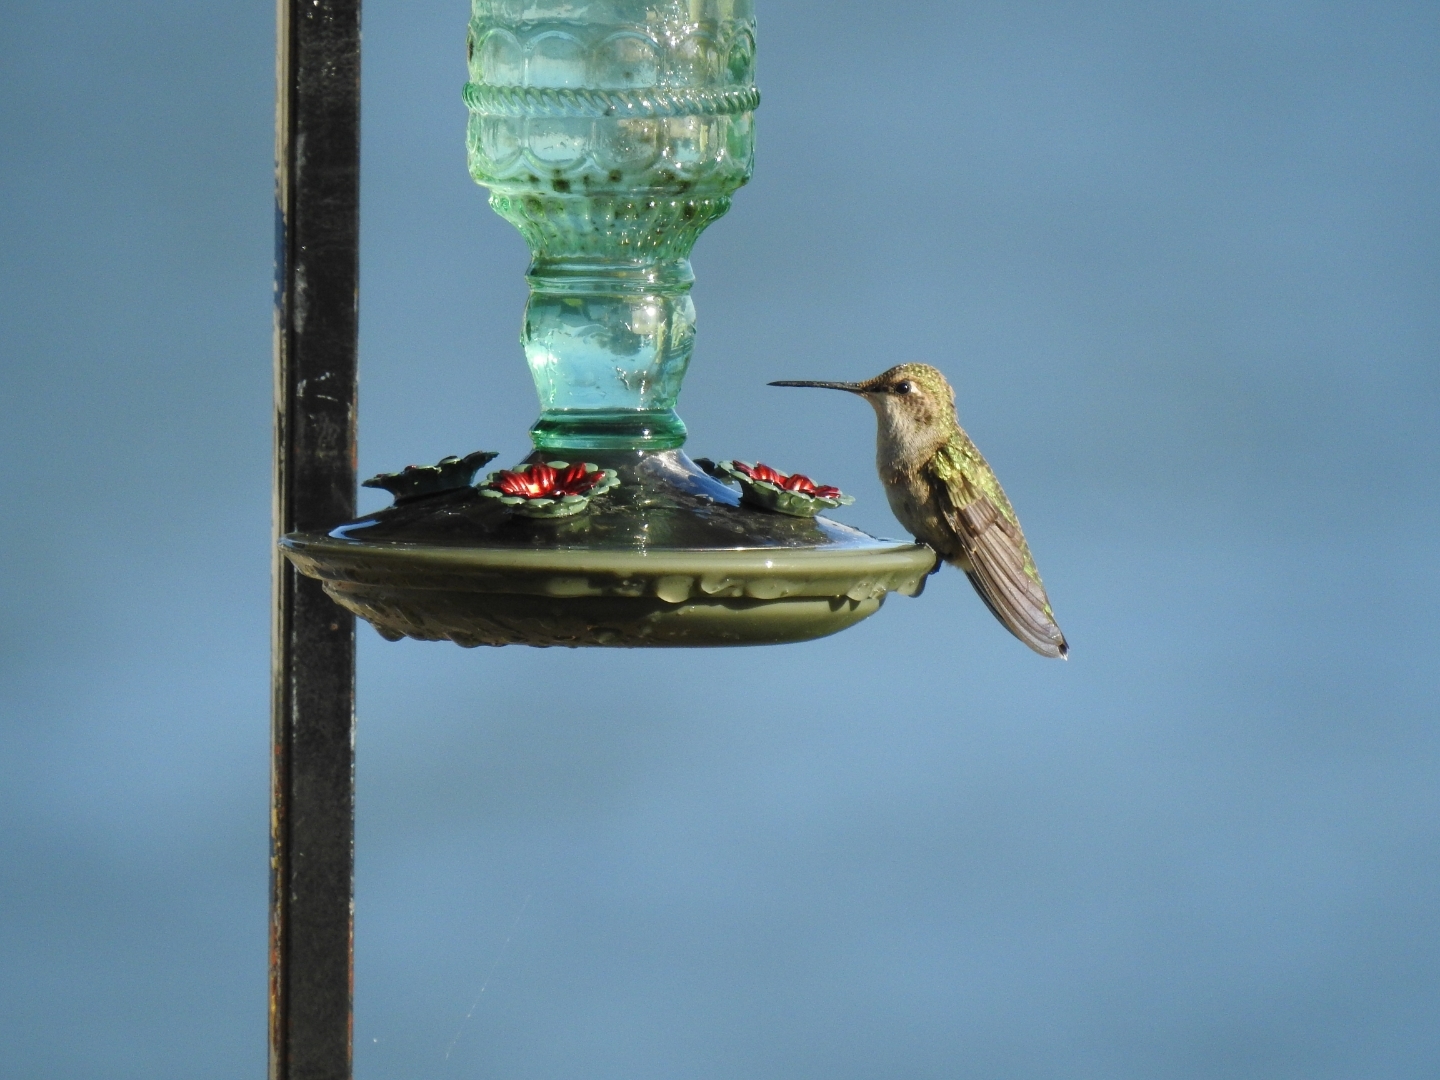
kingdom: Animalia
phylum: Chordata
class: Aves
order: Apodiformes
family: Trochilidae
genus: Archilochus
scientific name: Archilochus alexandri
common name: Black-chinned hummingbird
